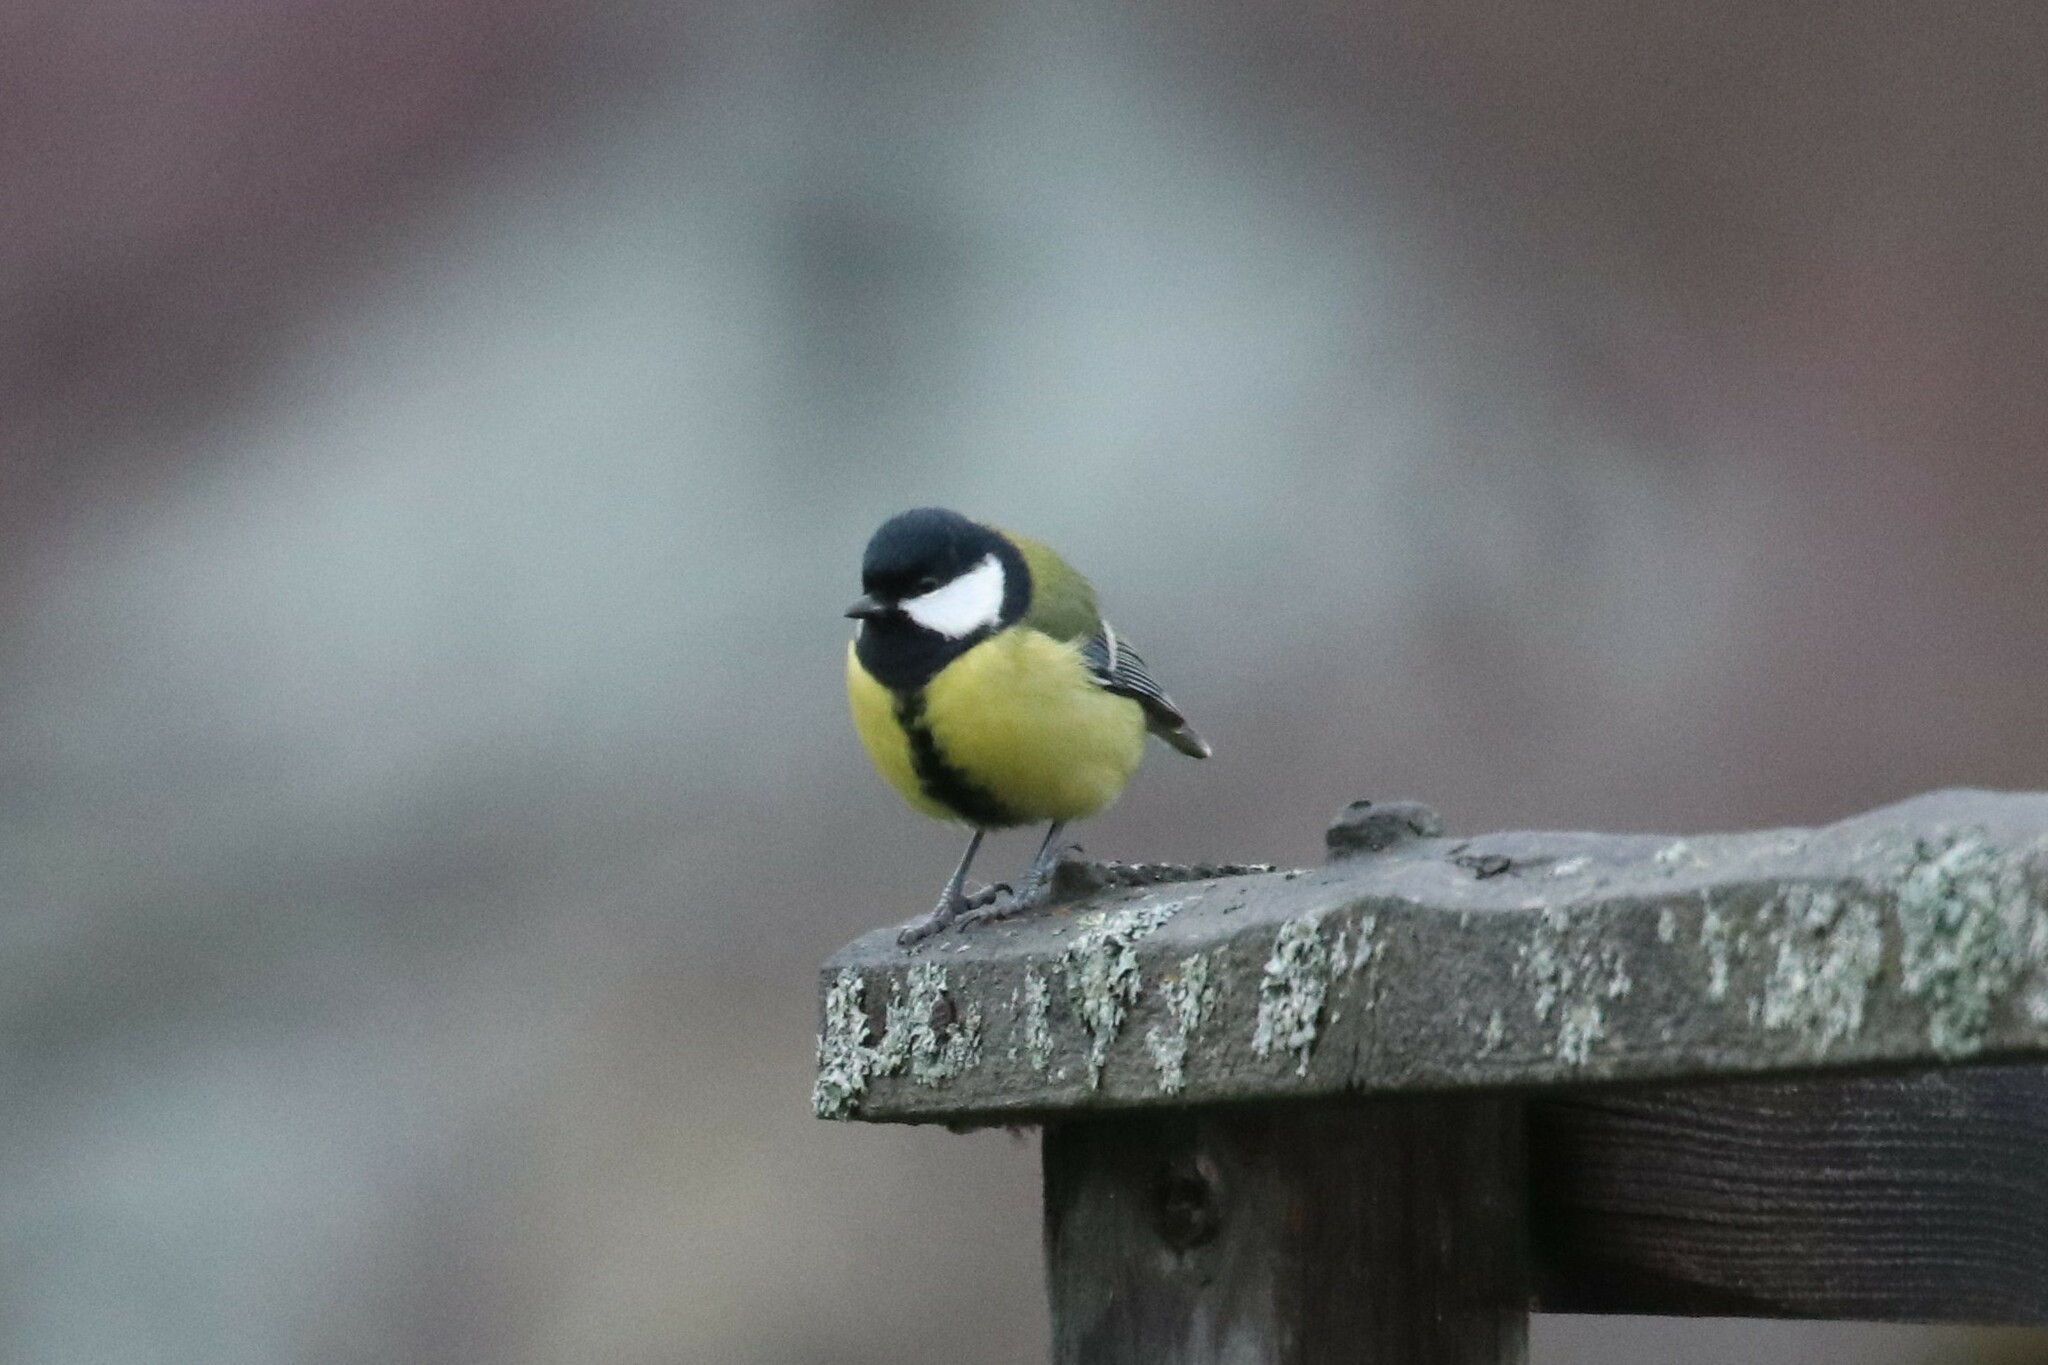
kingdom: Animalia
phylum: Chordata
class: Aves
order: Passeriformes
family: Paridae
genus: Parus
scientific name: Parus major
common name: Great tit
